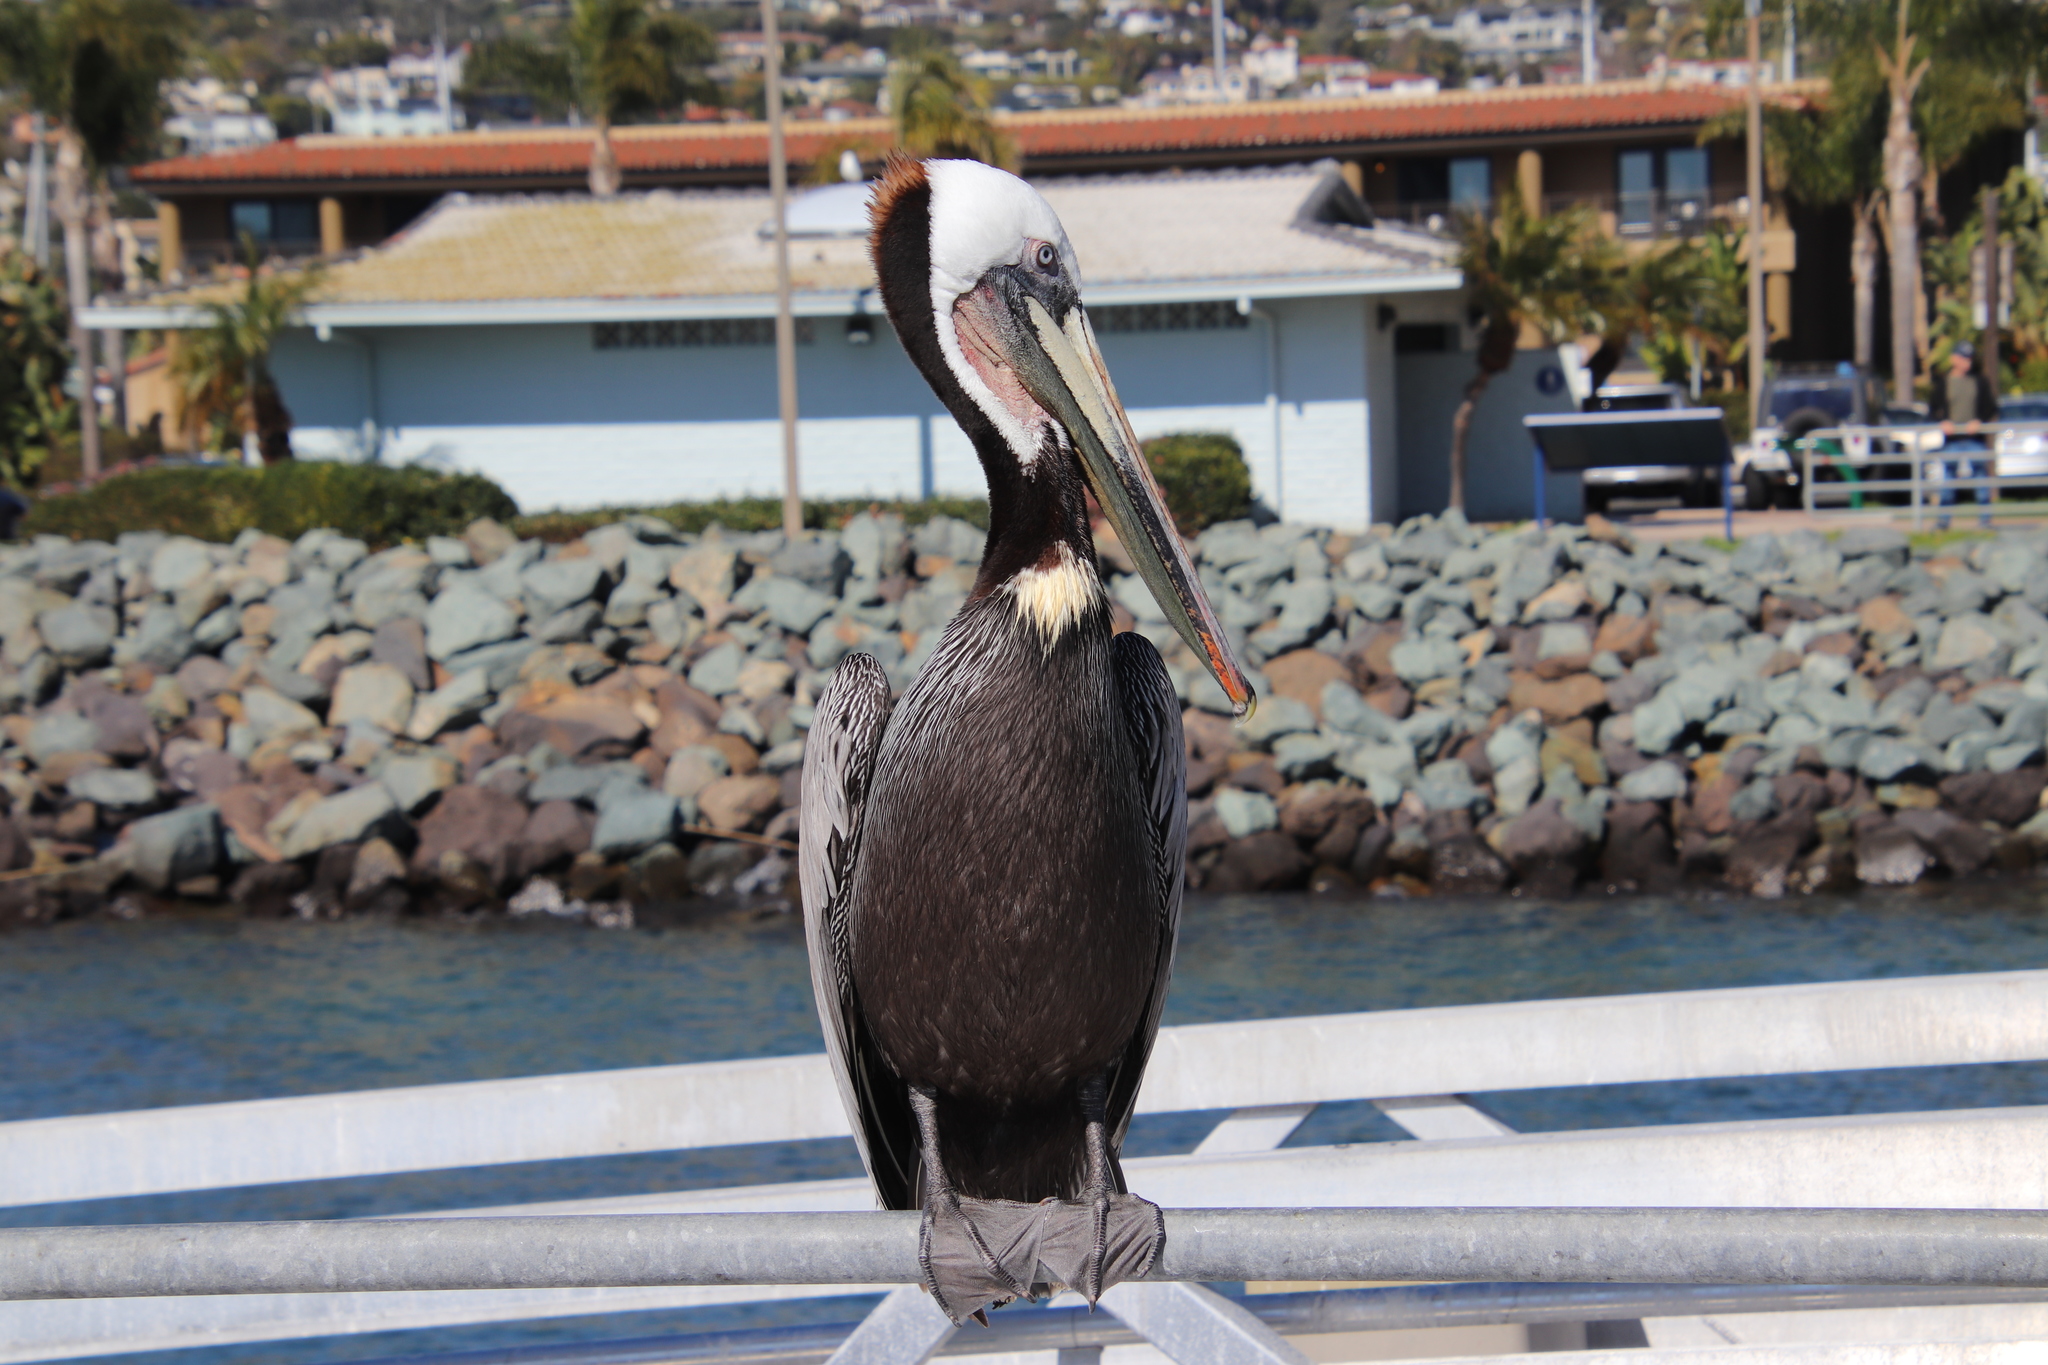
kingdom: Animalia
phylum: Chordata
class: Aves
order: Pelecaniformes
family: Pelecanidae
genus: Pelecanus
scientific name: Pelecanus occidentalis
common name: Brown pelican
